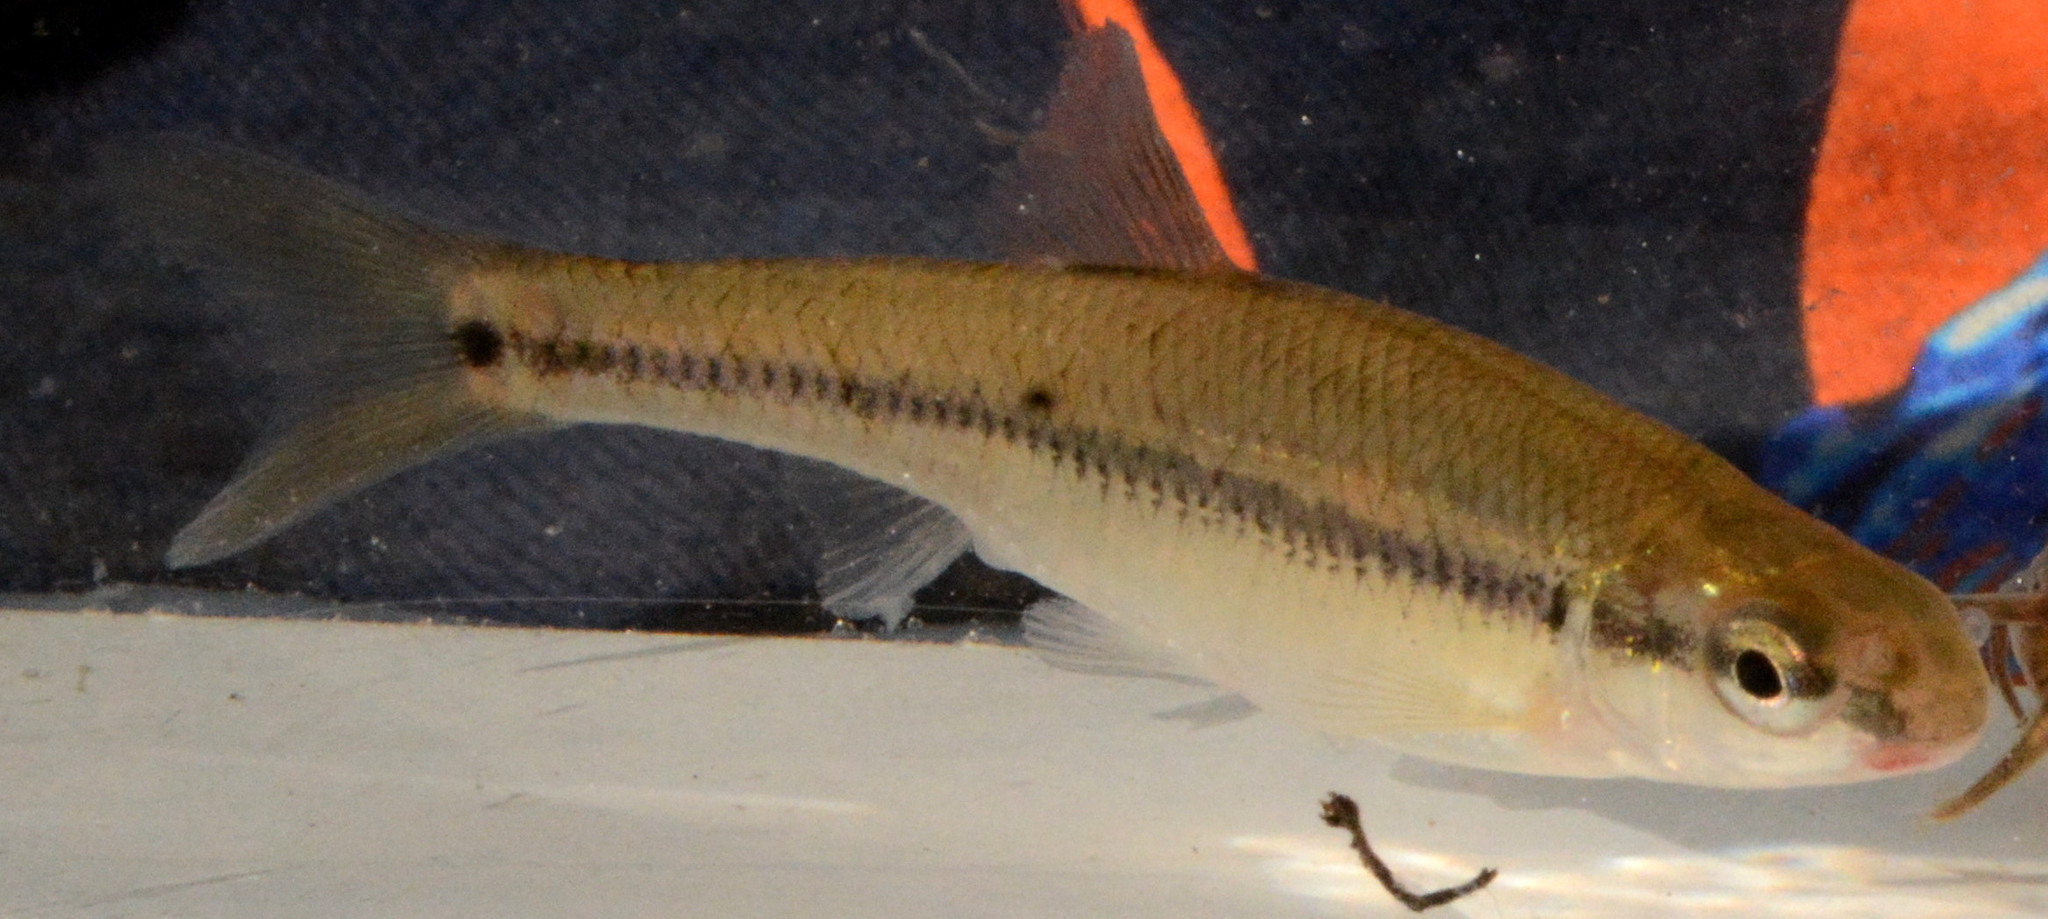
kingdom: Animalia
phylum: Chordata
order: Cypriniformes
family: Cyprinidae
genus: Pimephales
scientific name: Pimephales notatus
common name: Bluntnose minnow
